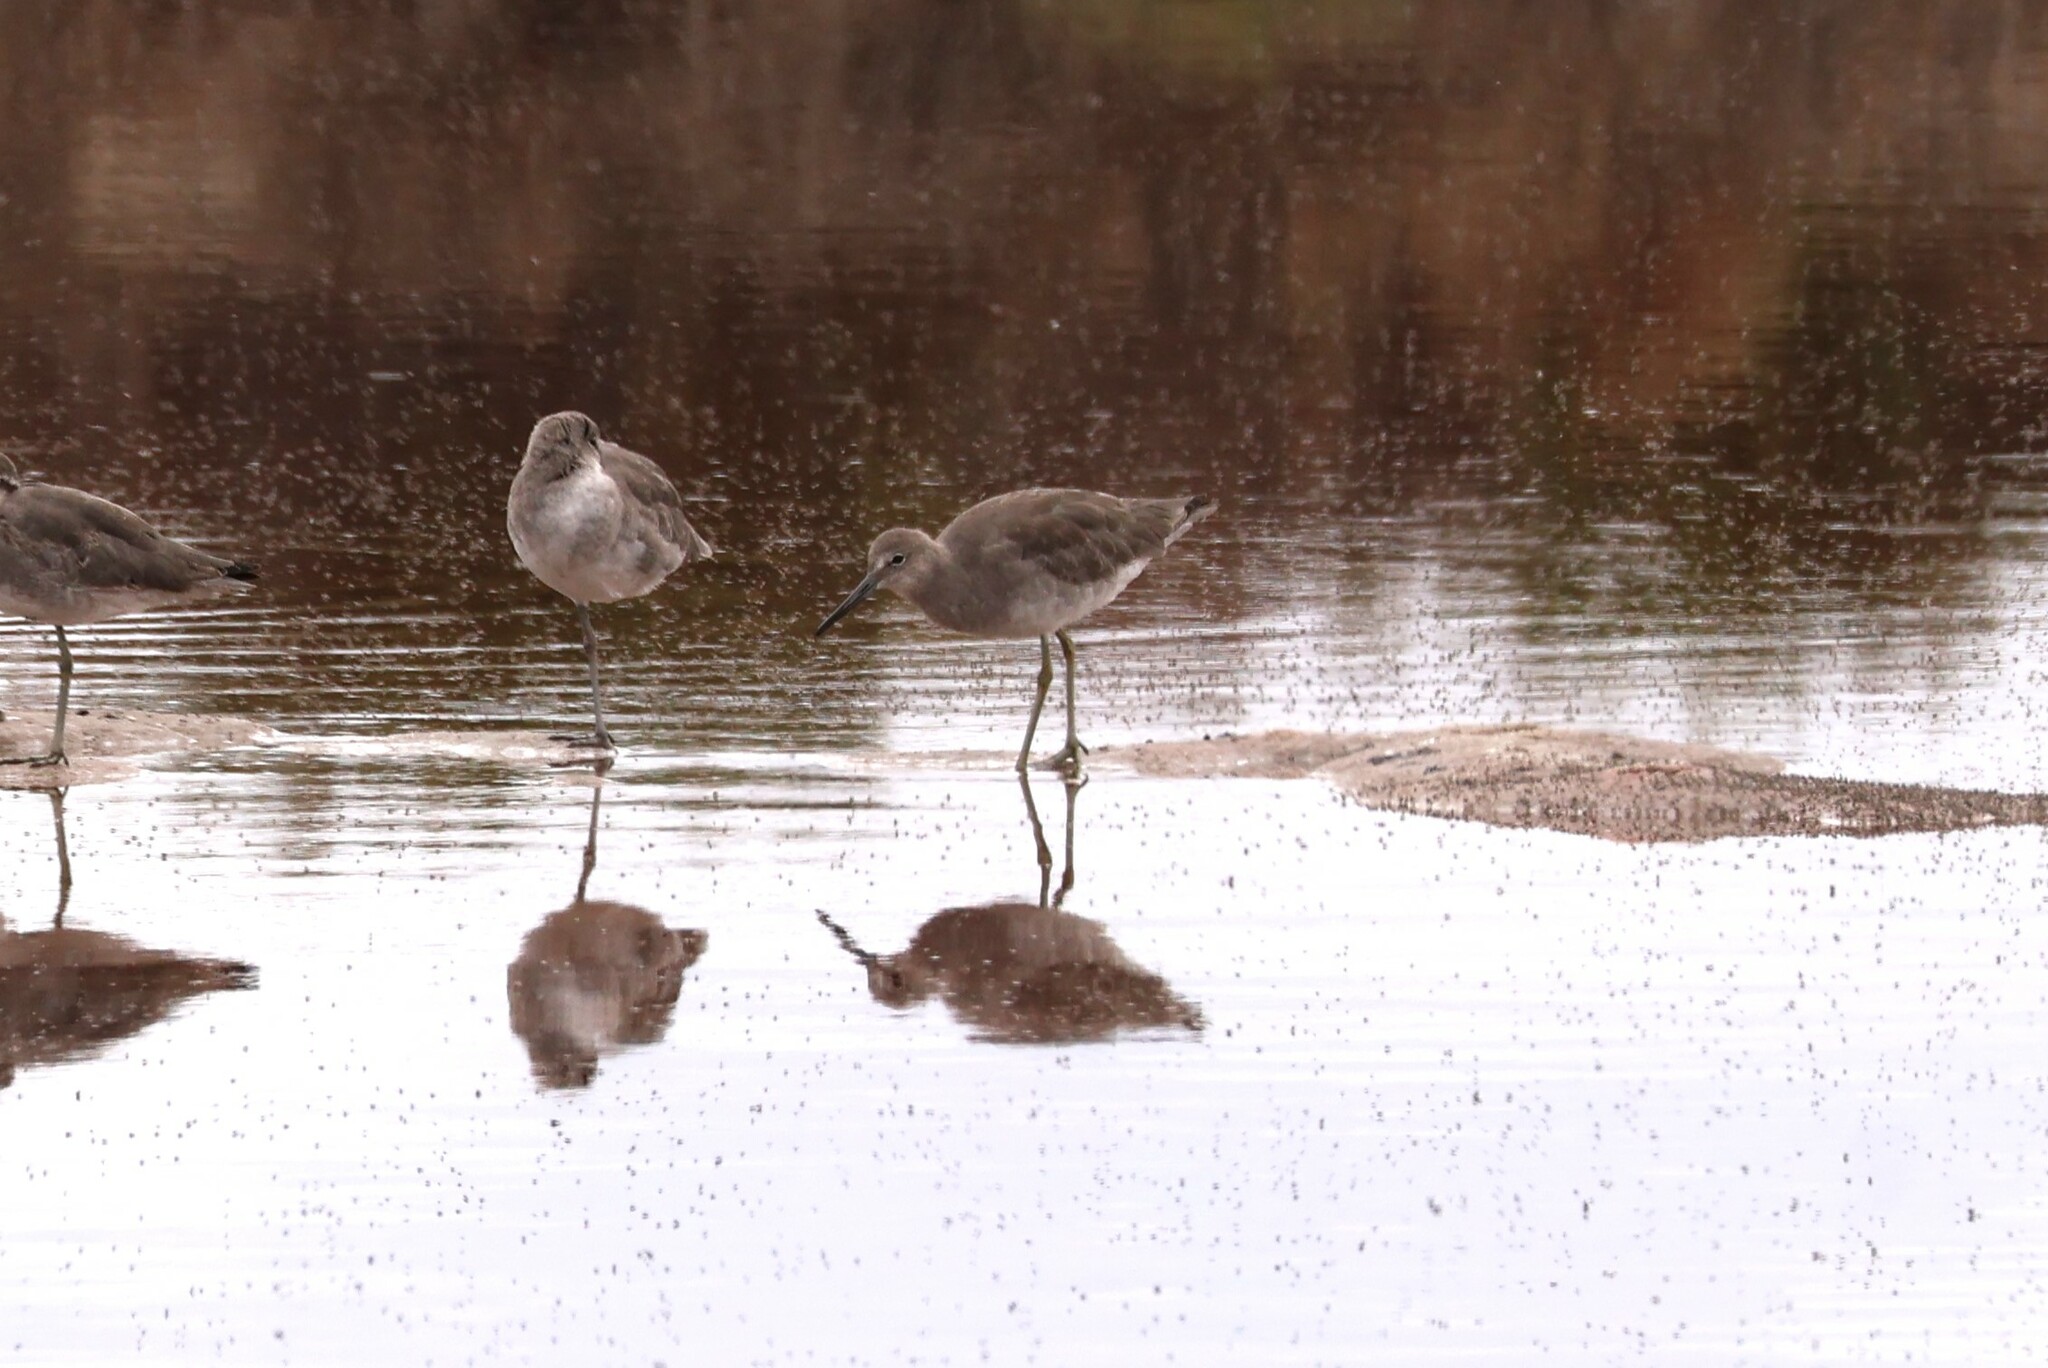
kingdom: Animalia
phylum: Chordata
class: Aves
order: Charadriiformes
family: Scolopacidae
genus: Tringa
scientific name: Tringa semipalmata
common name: Willet
